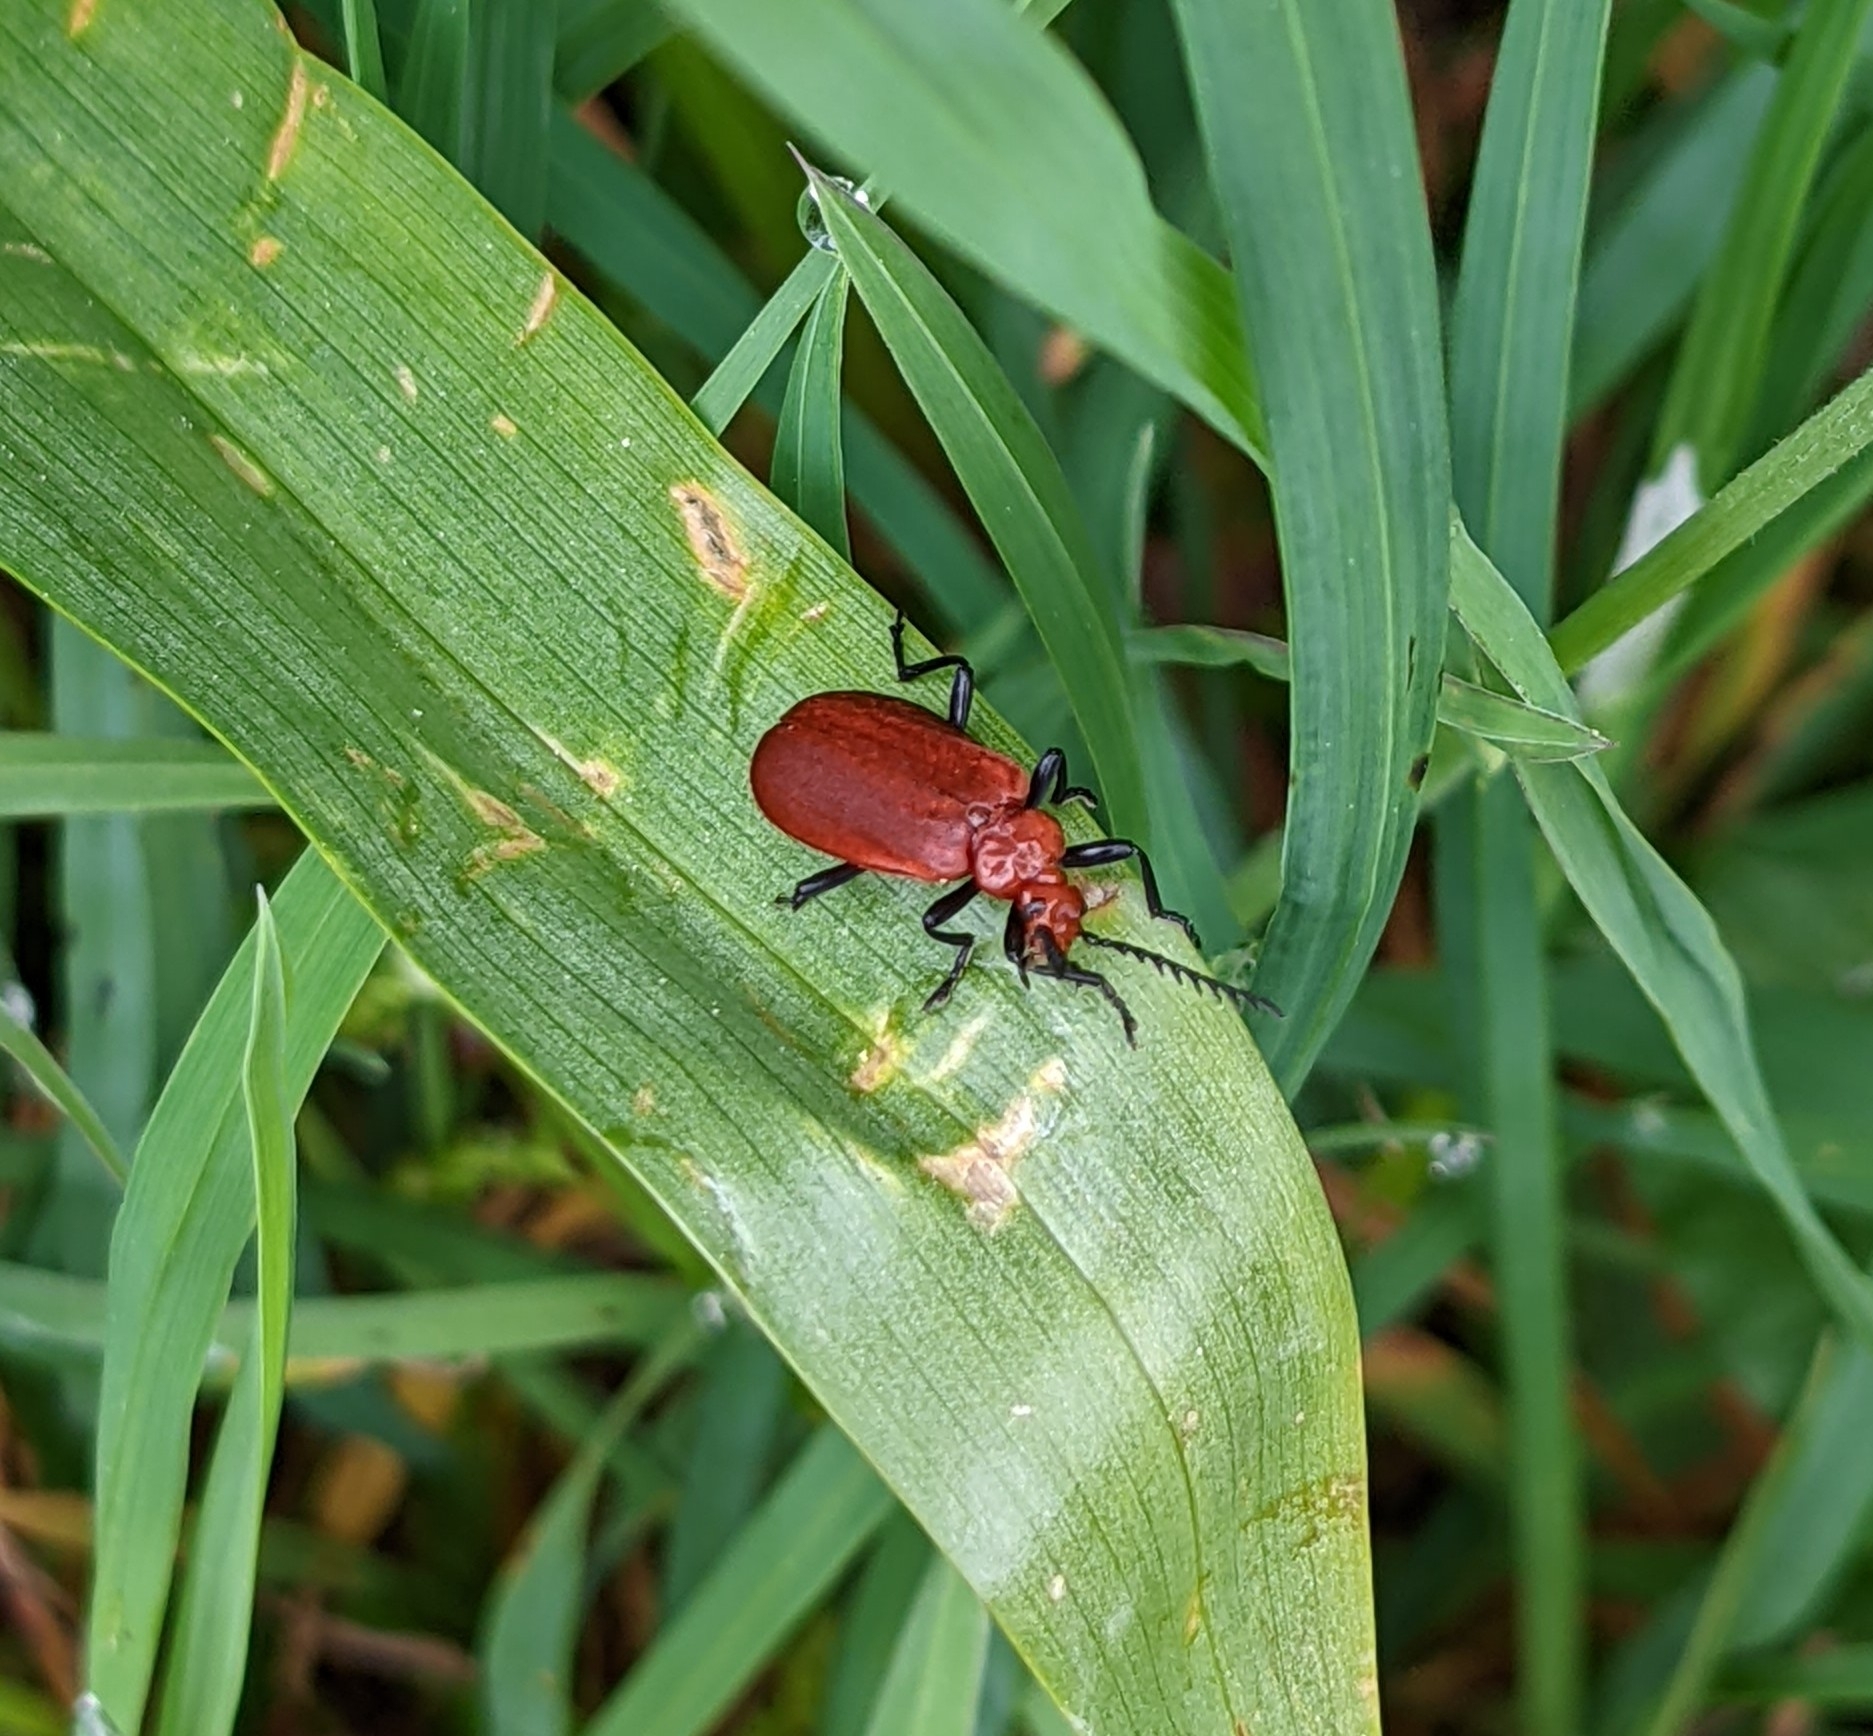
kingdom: Animalia
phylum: Arthropoda
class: Insecta
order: Coleoptera
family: Pyrochroidae
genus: Pyrochroa
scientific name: Pyrochroa serraticornis
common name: Red-headed cardinal beetle
